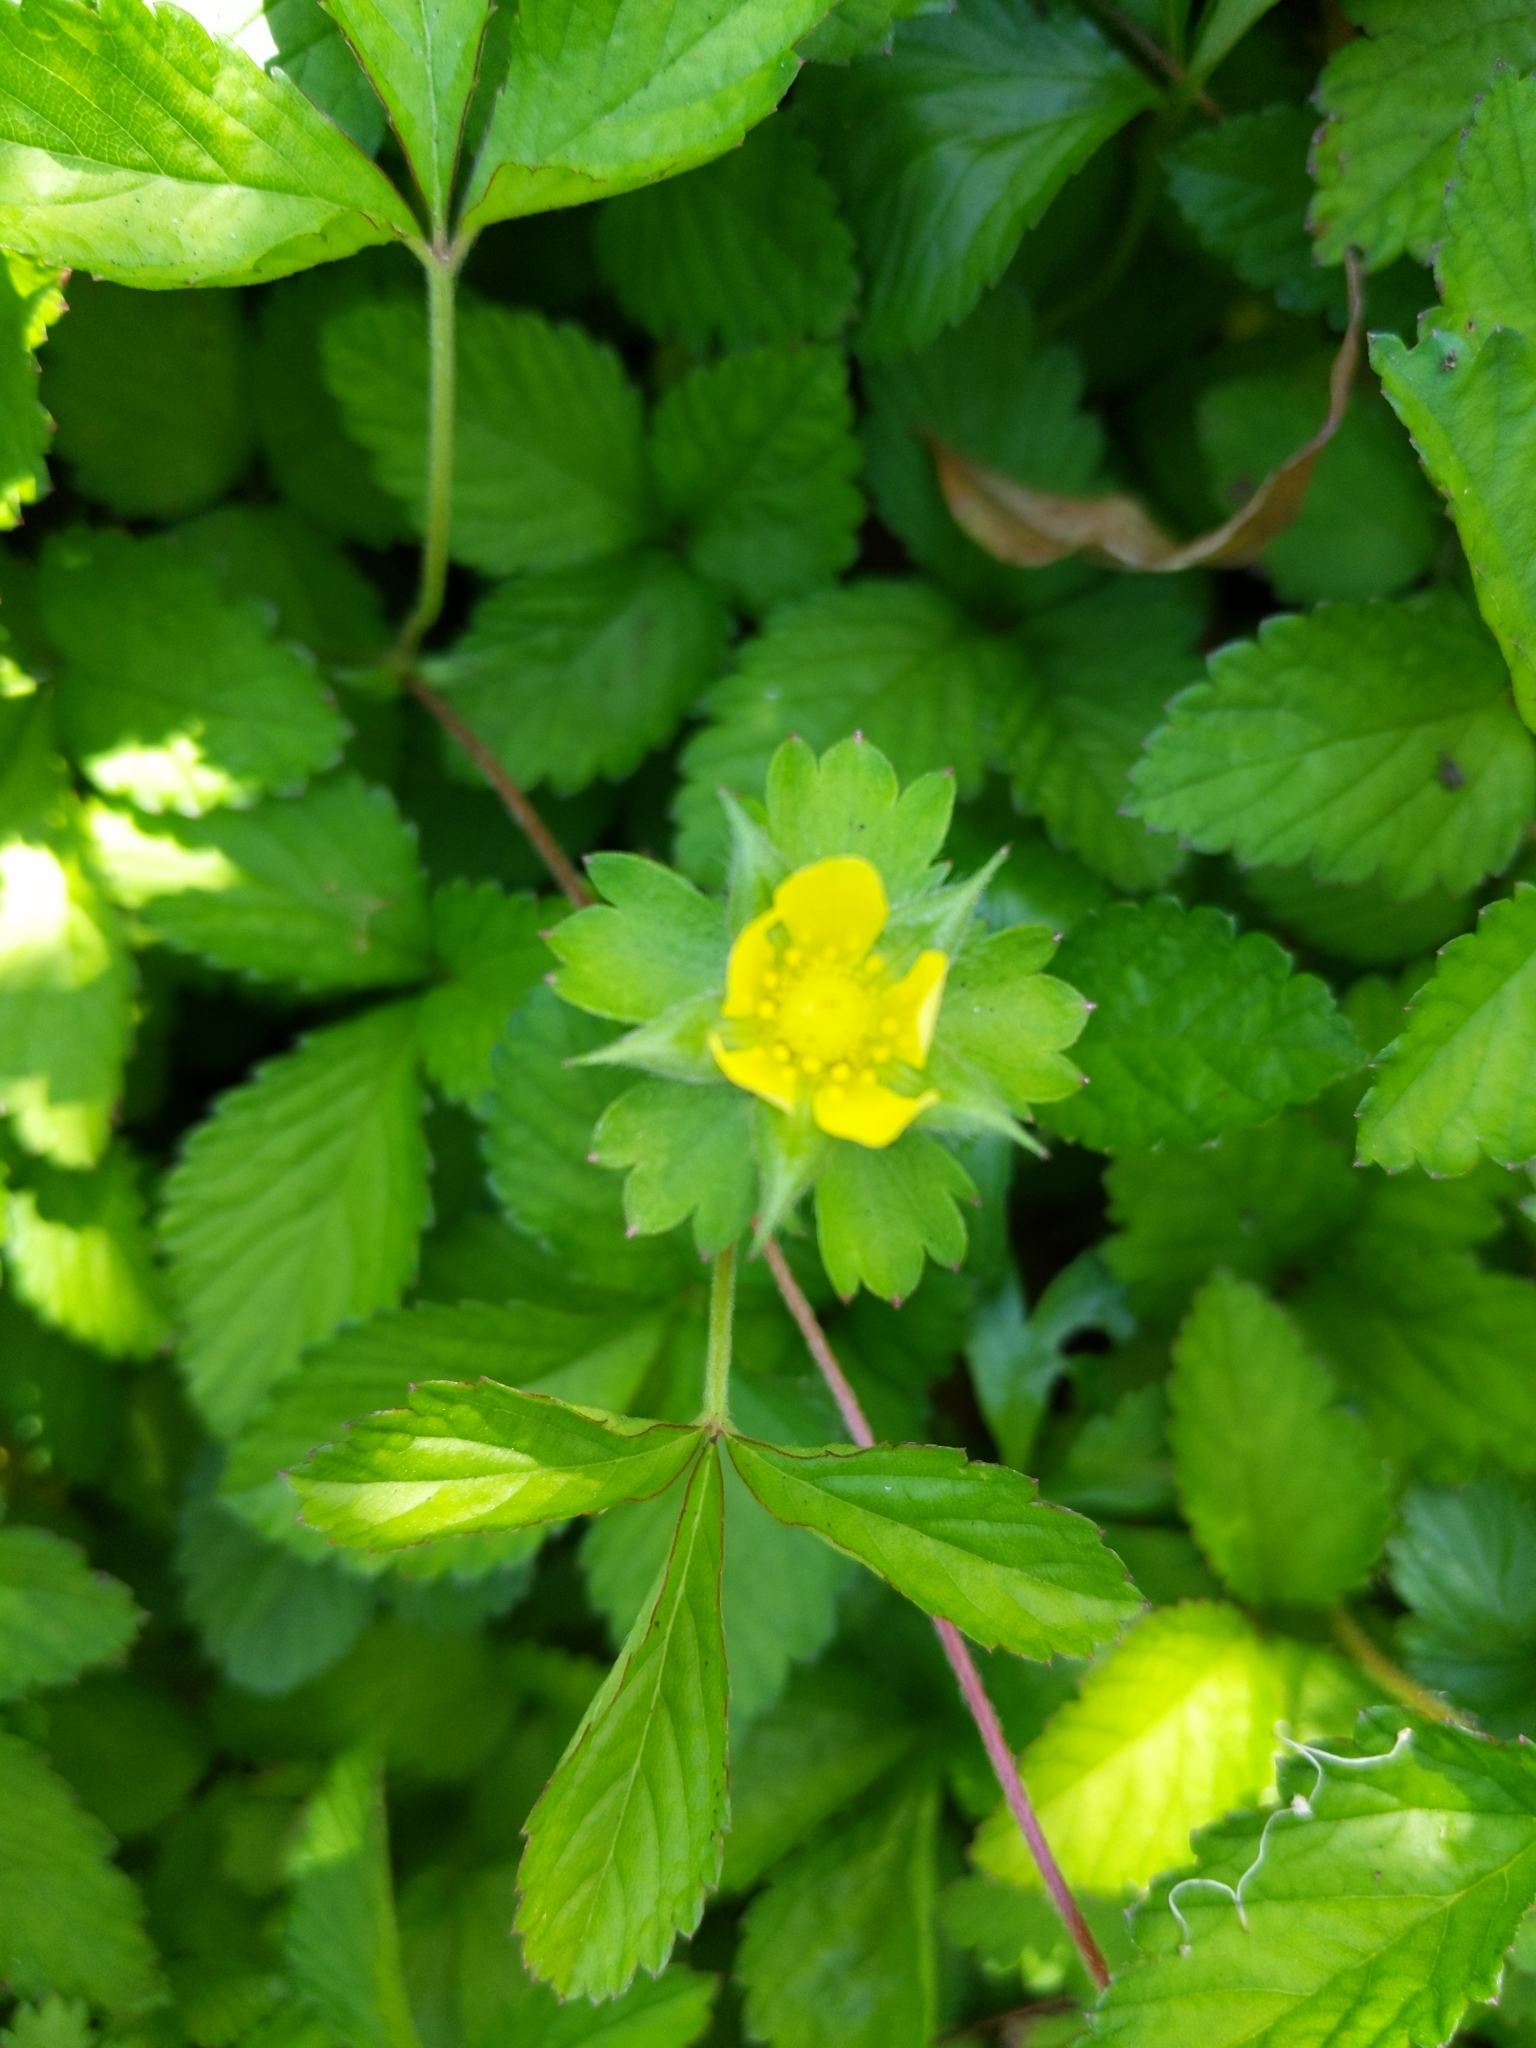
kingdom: Plantae
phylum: Tracheophyta
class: Magnoliopsida
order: Rosales
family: Rosaceae
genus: Potentilla
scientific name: Potentilla indica
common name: Yellow-flowered strawberry
